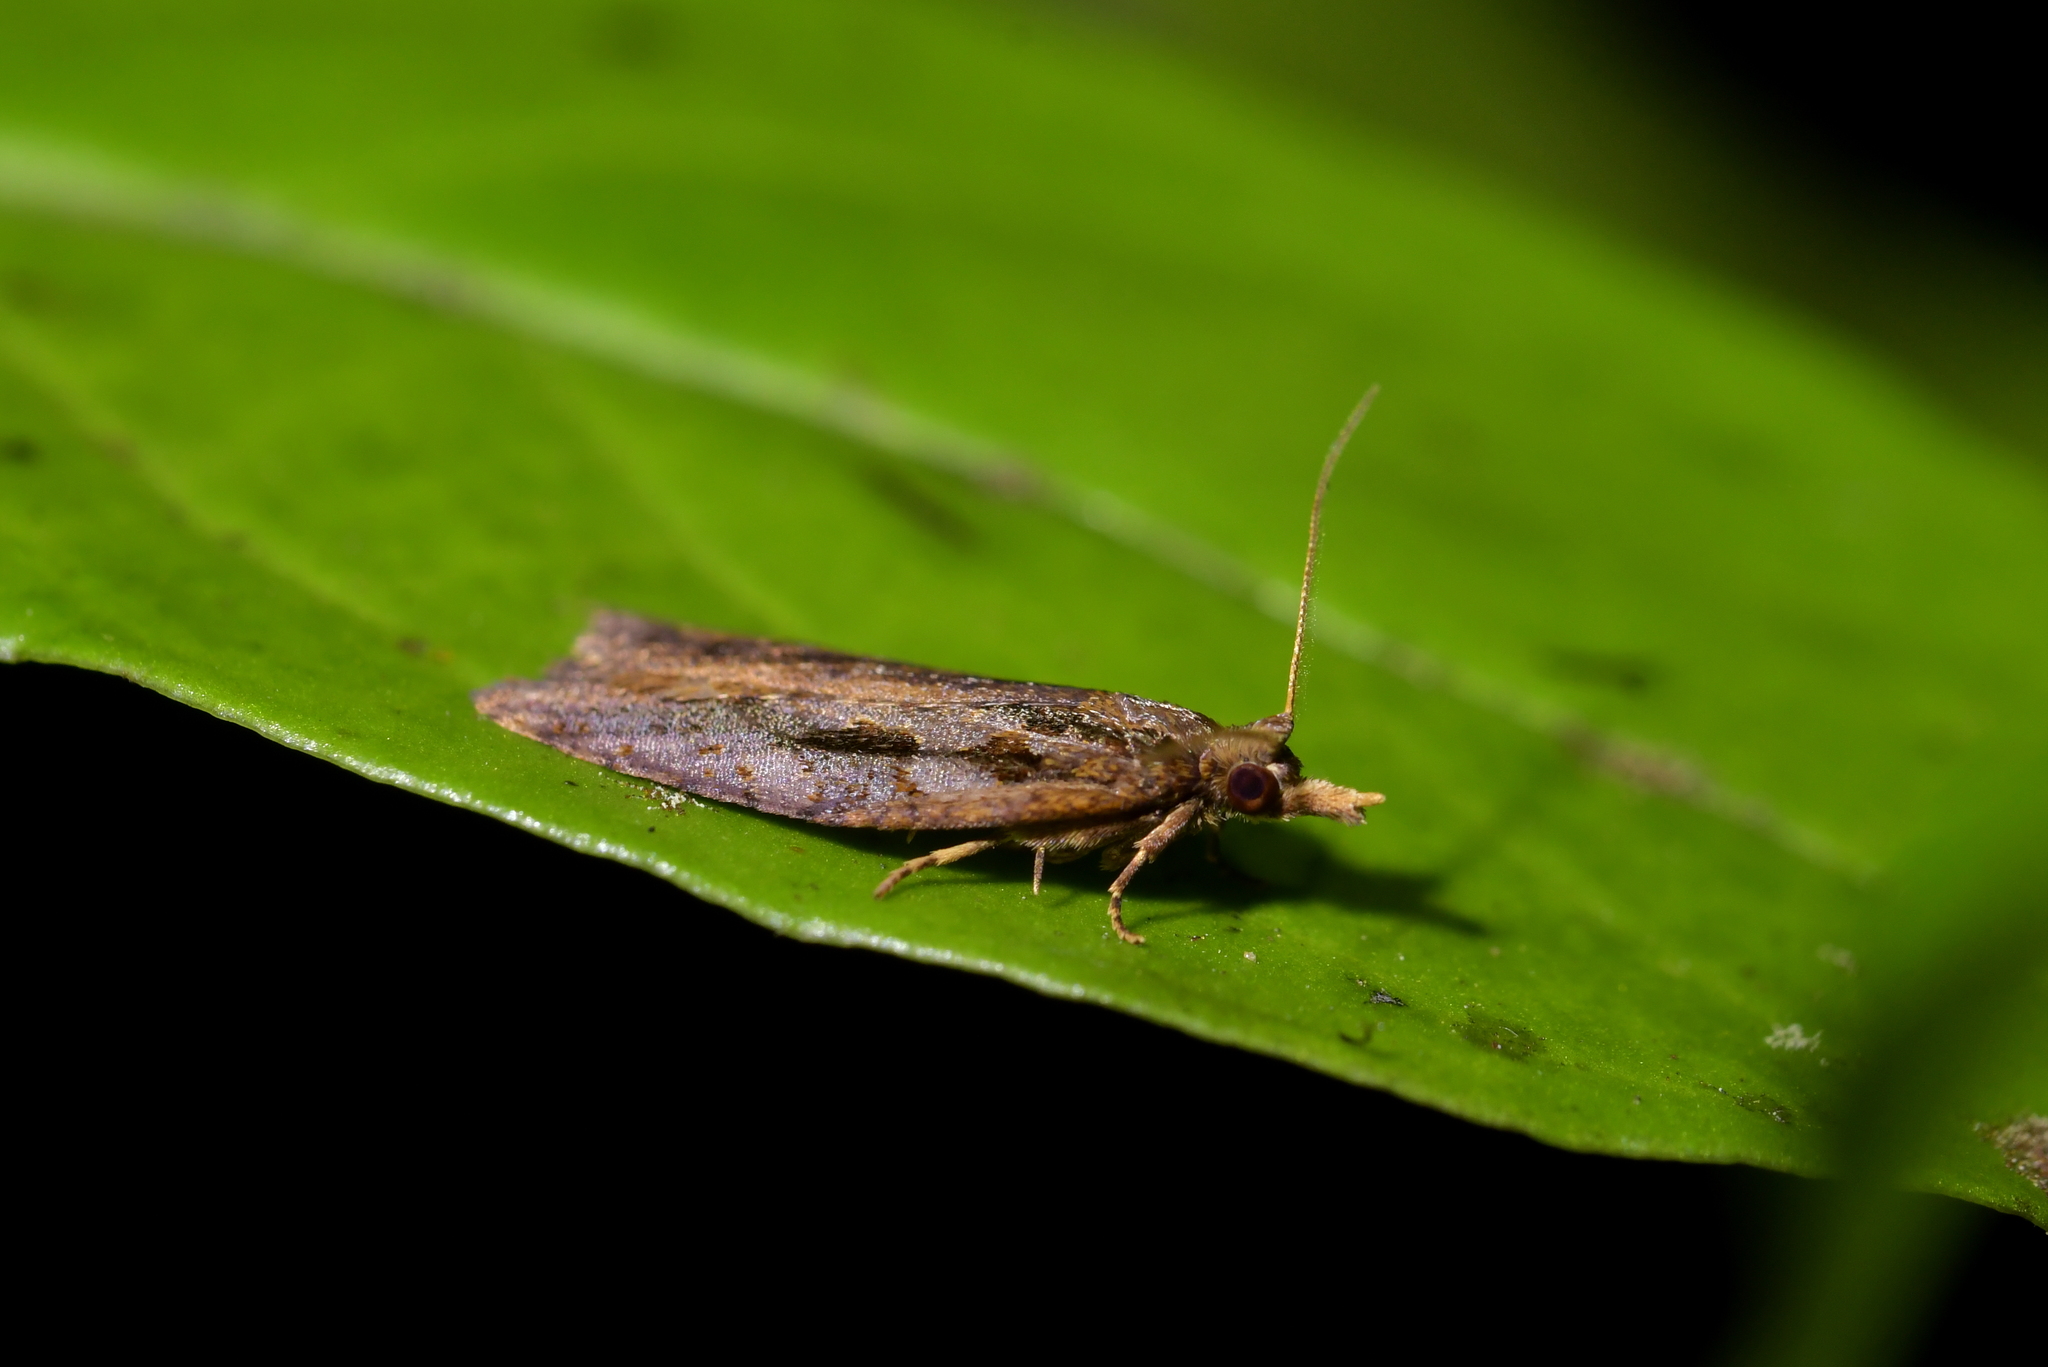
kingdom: Animalia
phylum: Arthropoda
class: Insecta
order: Lepidoptera
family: Tortricidae
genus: Ctenopseustis
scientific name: Ctenopseustis fraterna
